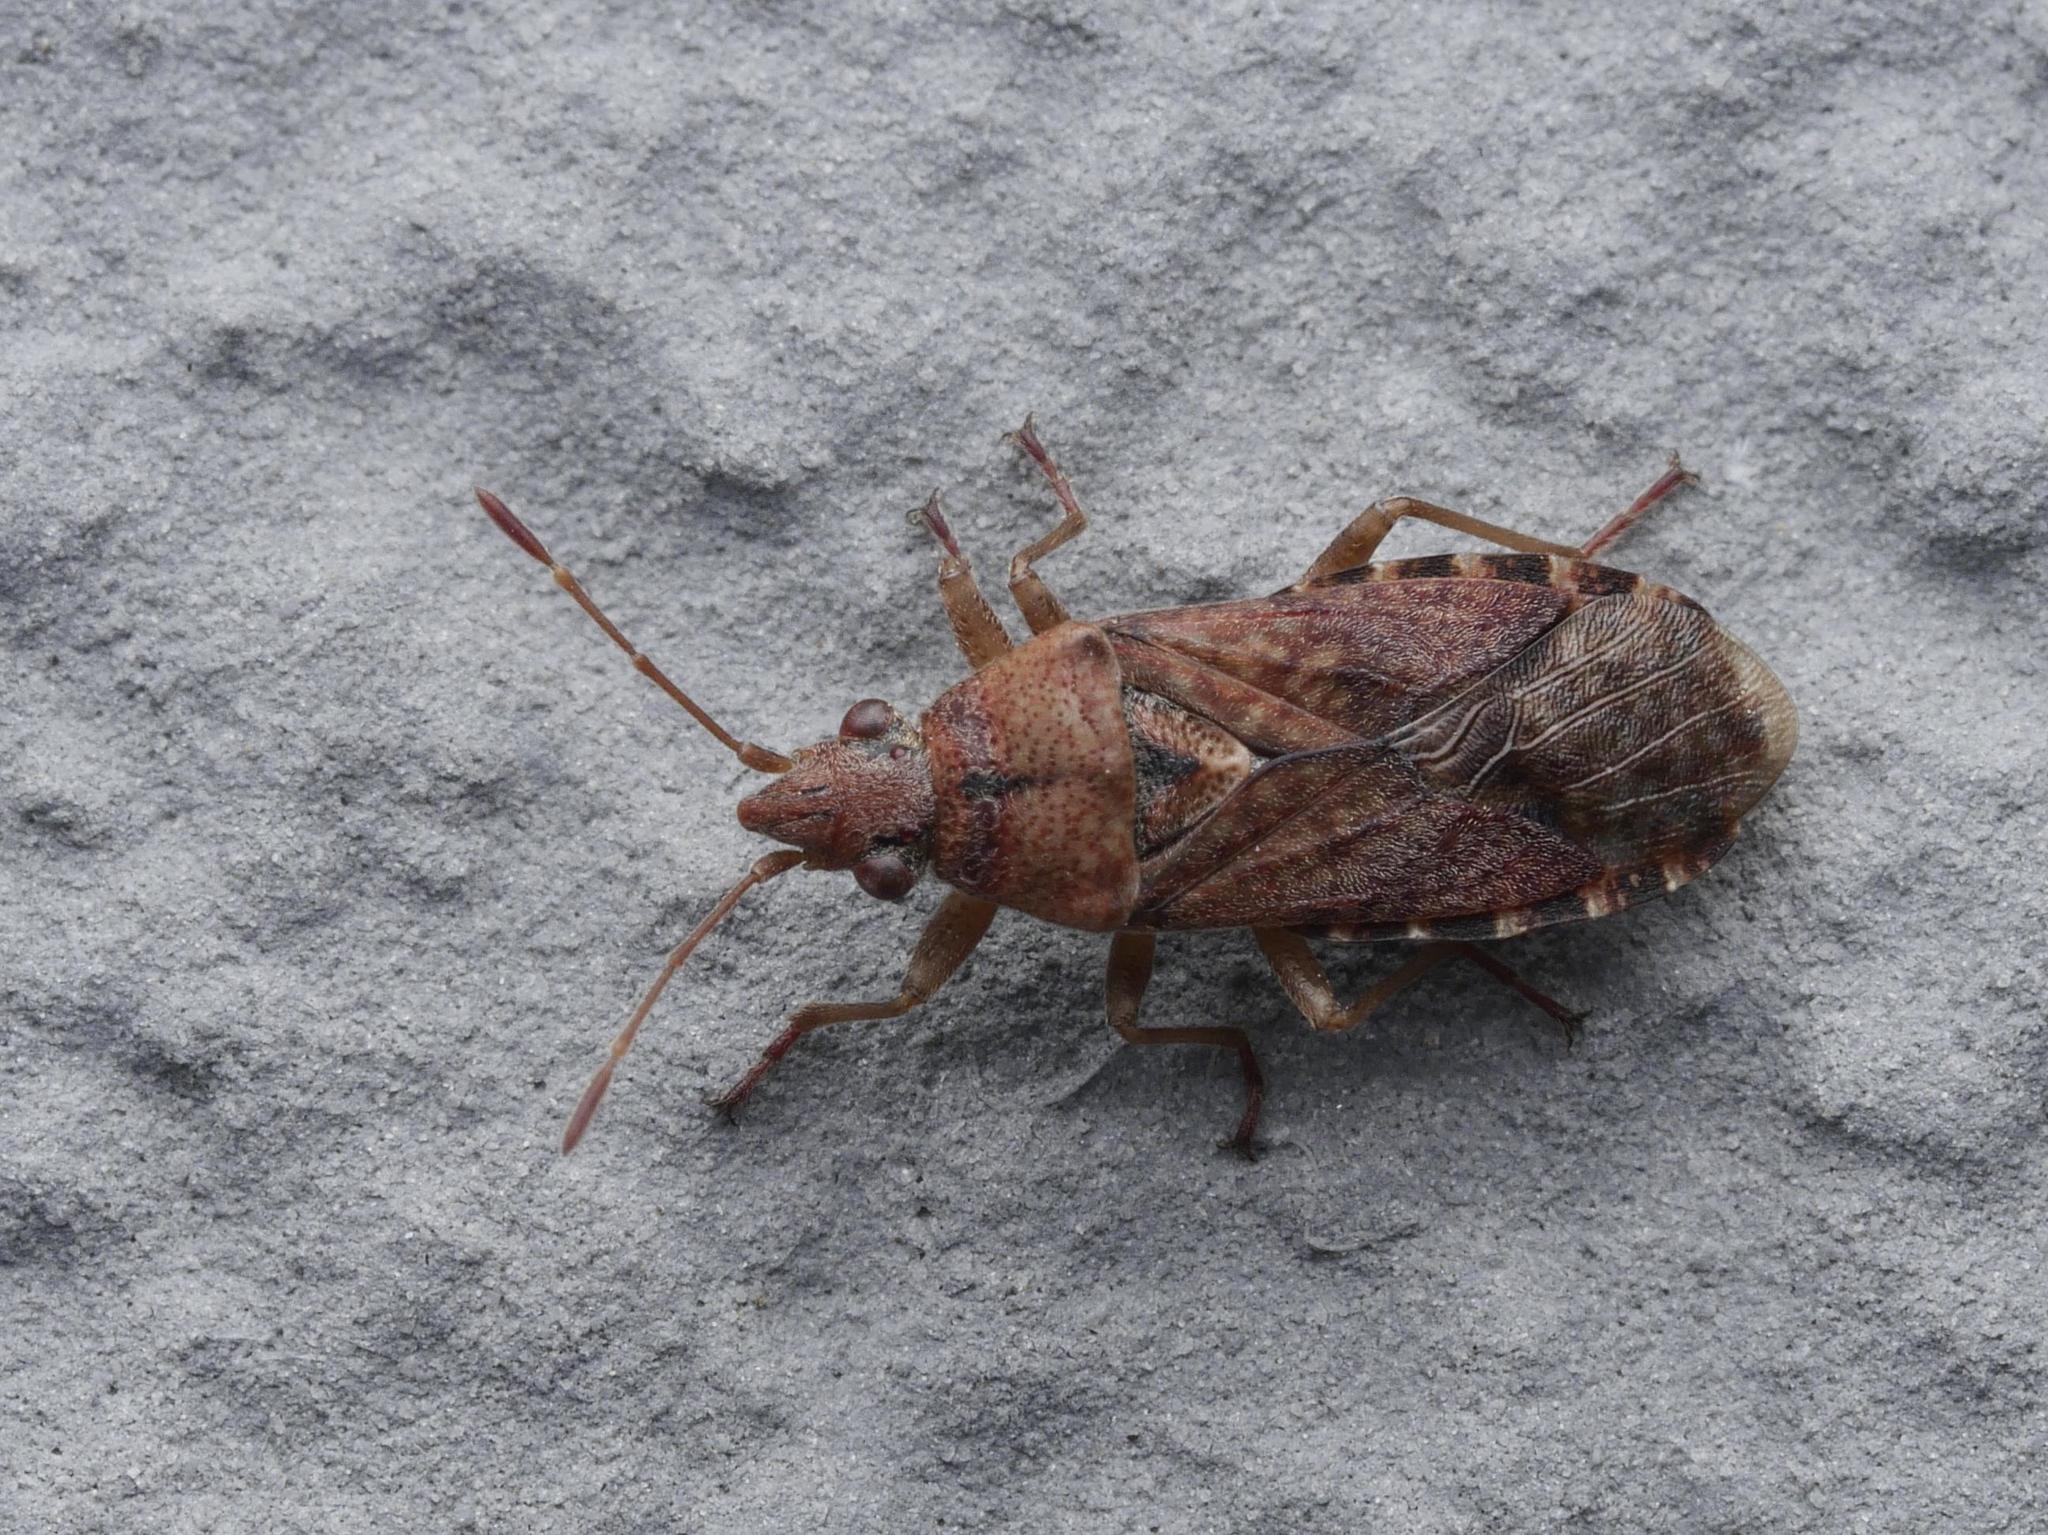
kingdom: Animalia
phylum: Arthropoda
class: Insecta
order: Hemiptera
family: Lygaeidae
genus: Orsillus
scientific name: Orsillus depressus
